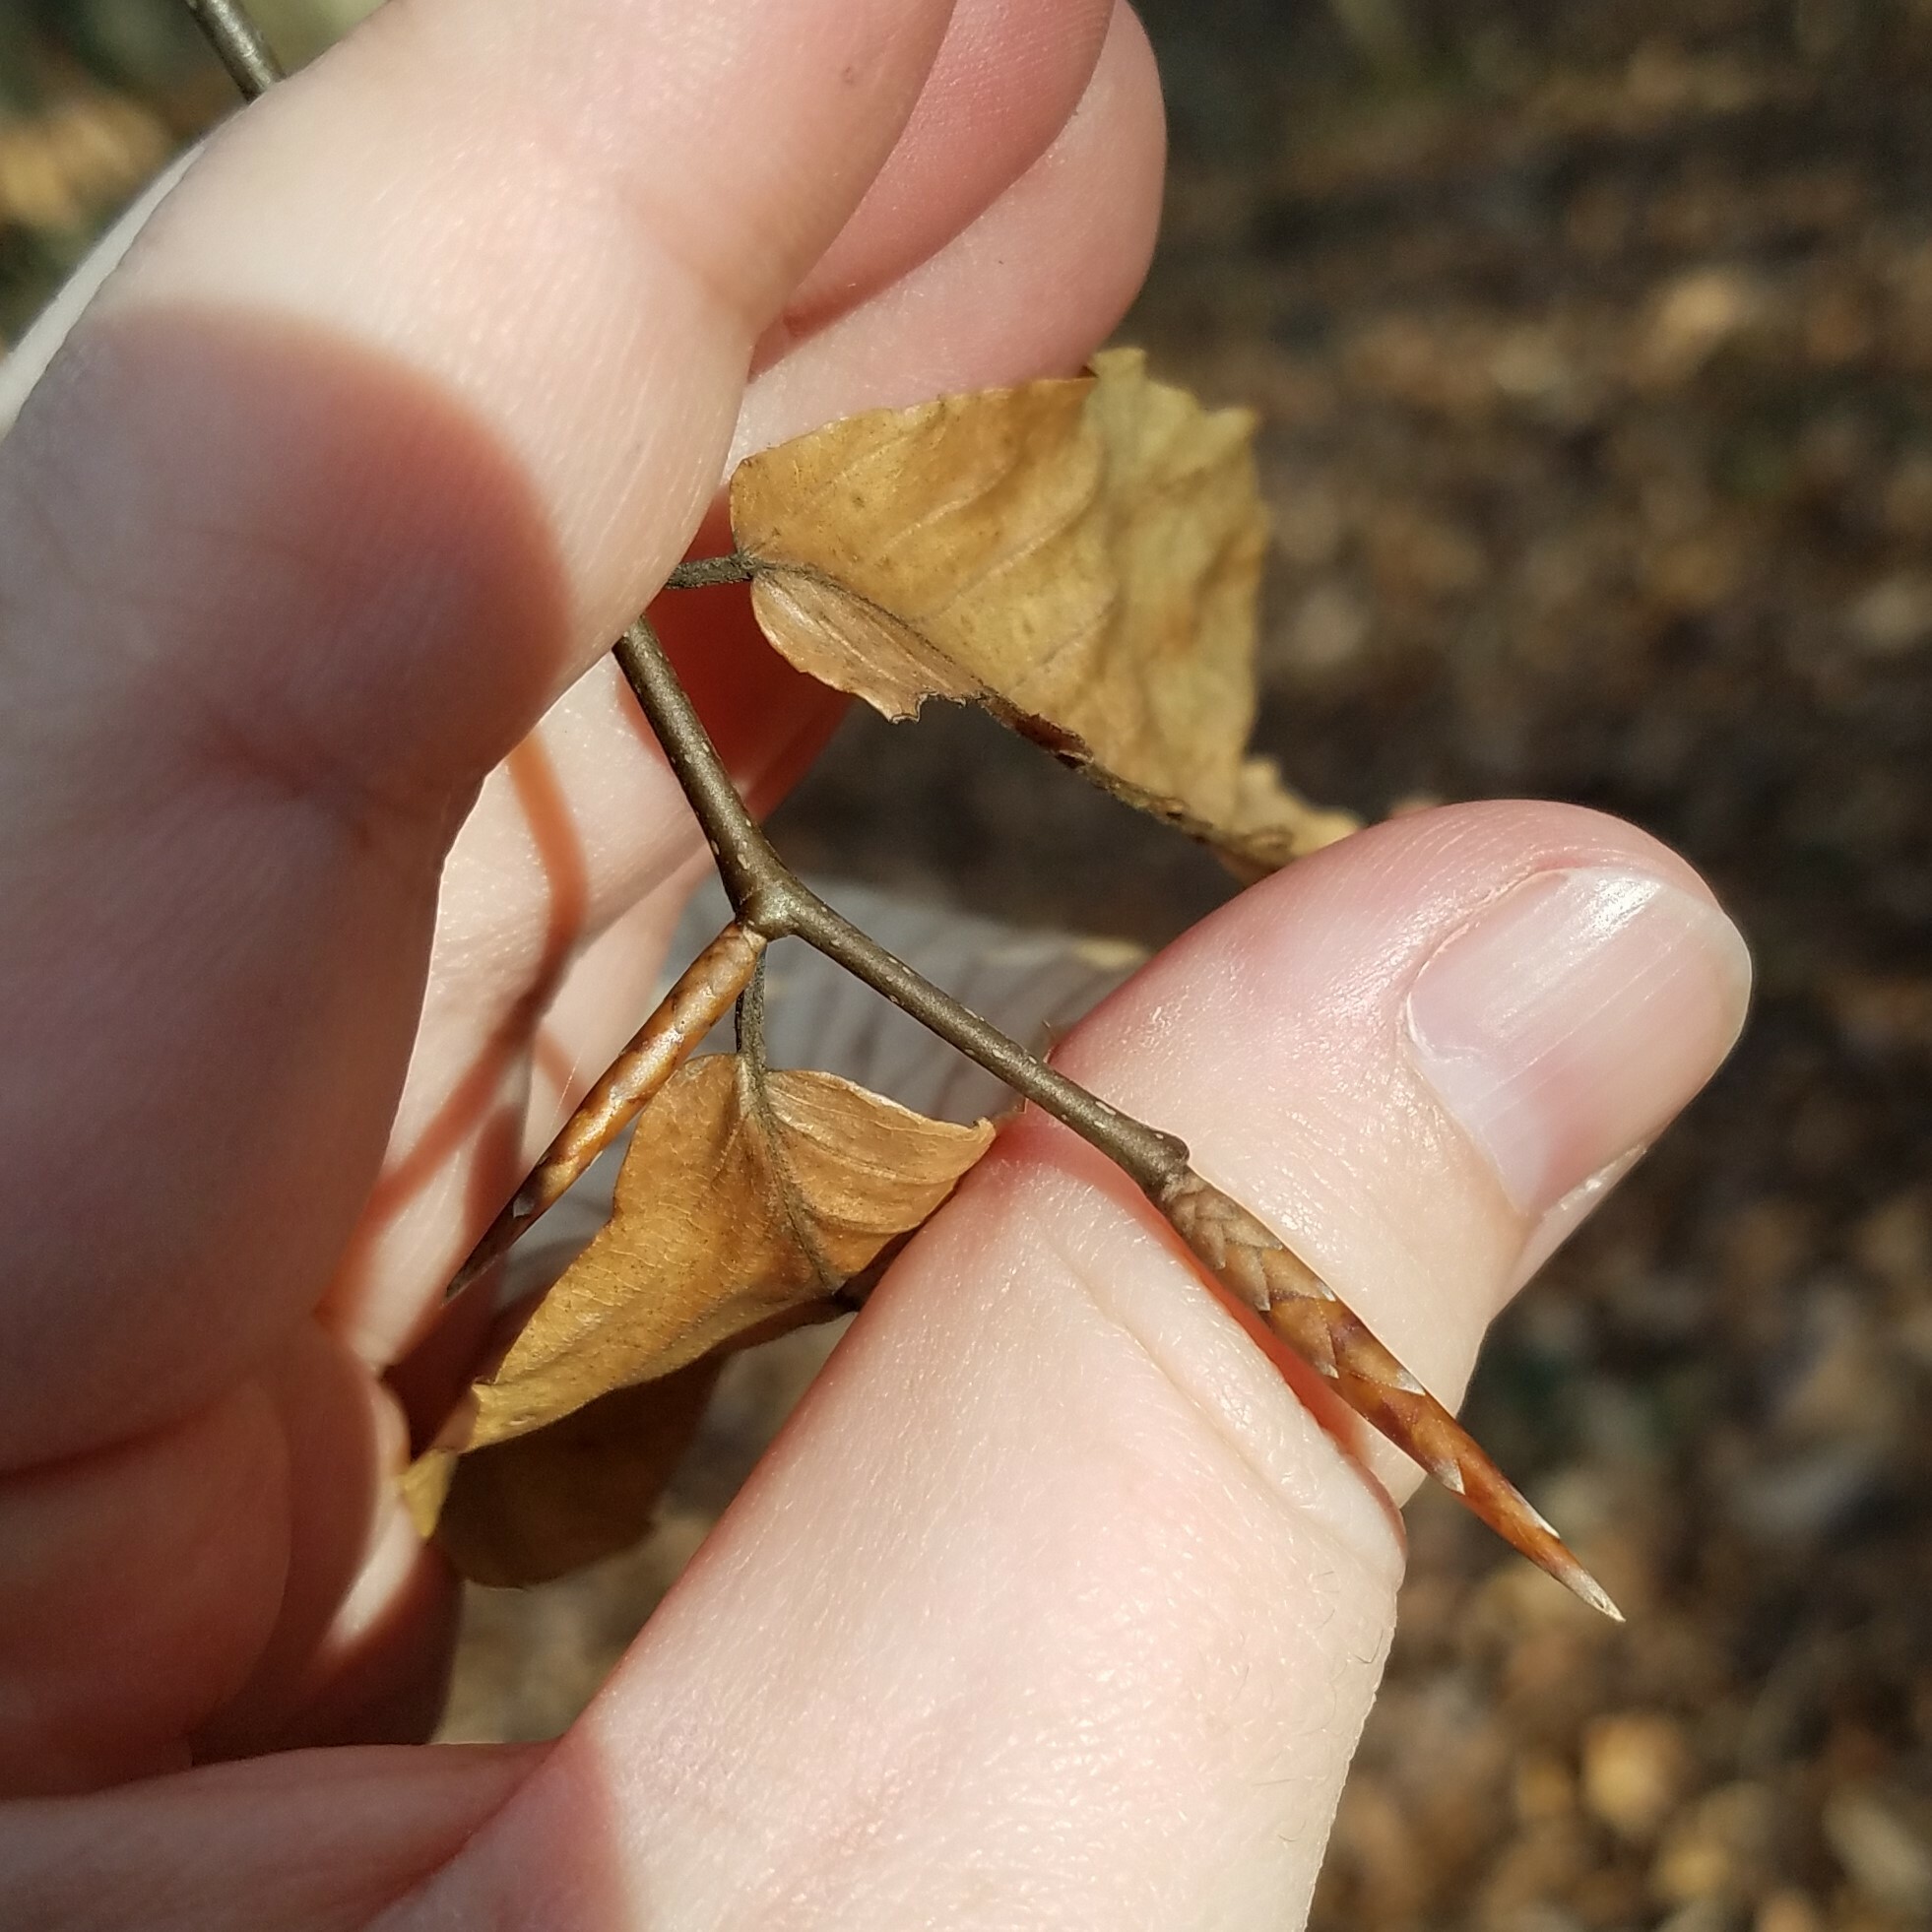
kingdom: Plantae
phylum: Tracheophyta
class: Magnoliopsida
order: Fagales
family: Fagaceae
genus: Fagus
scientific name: Fagus grandifolia
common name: American beech
